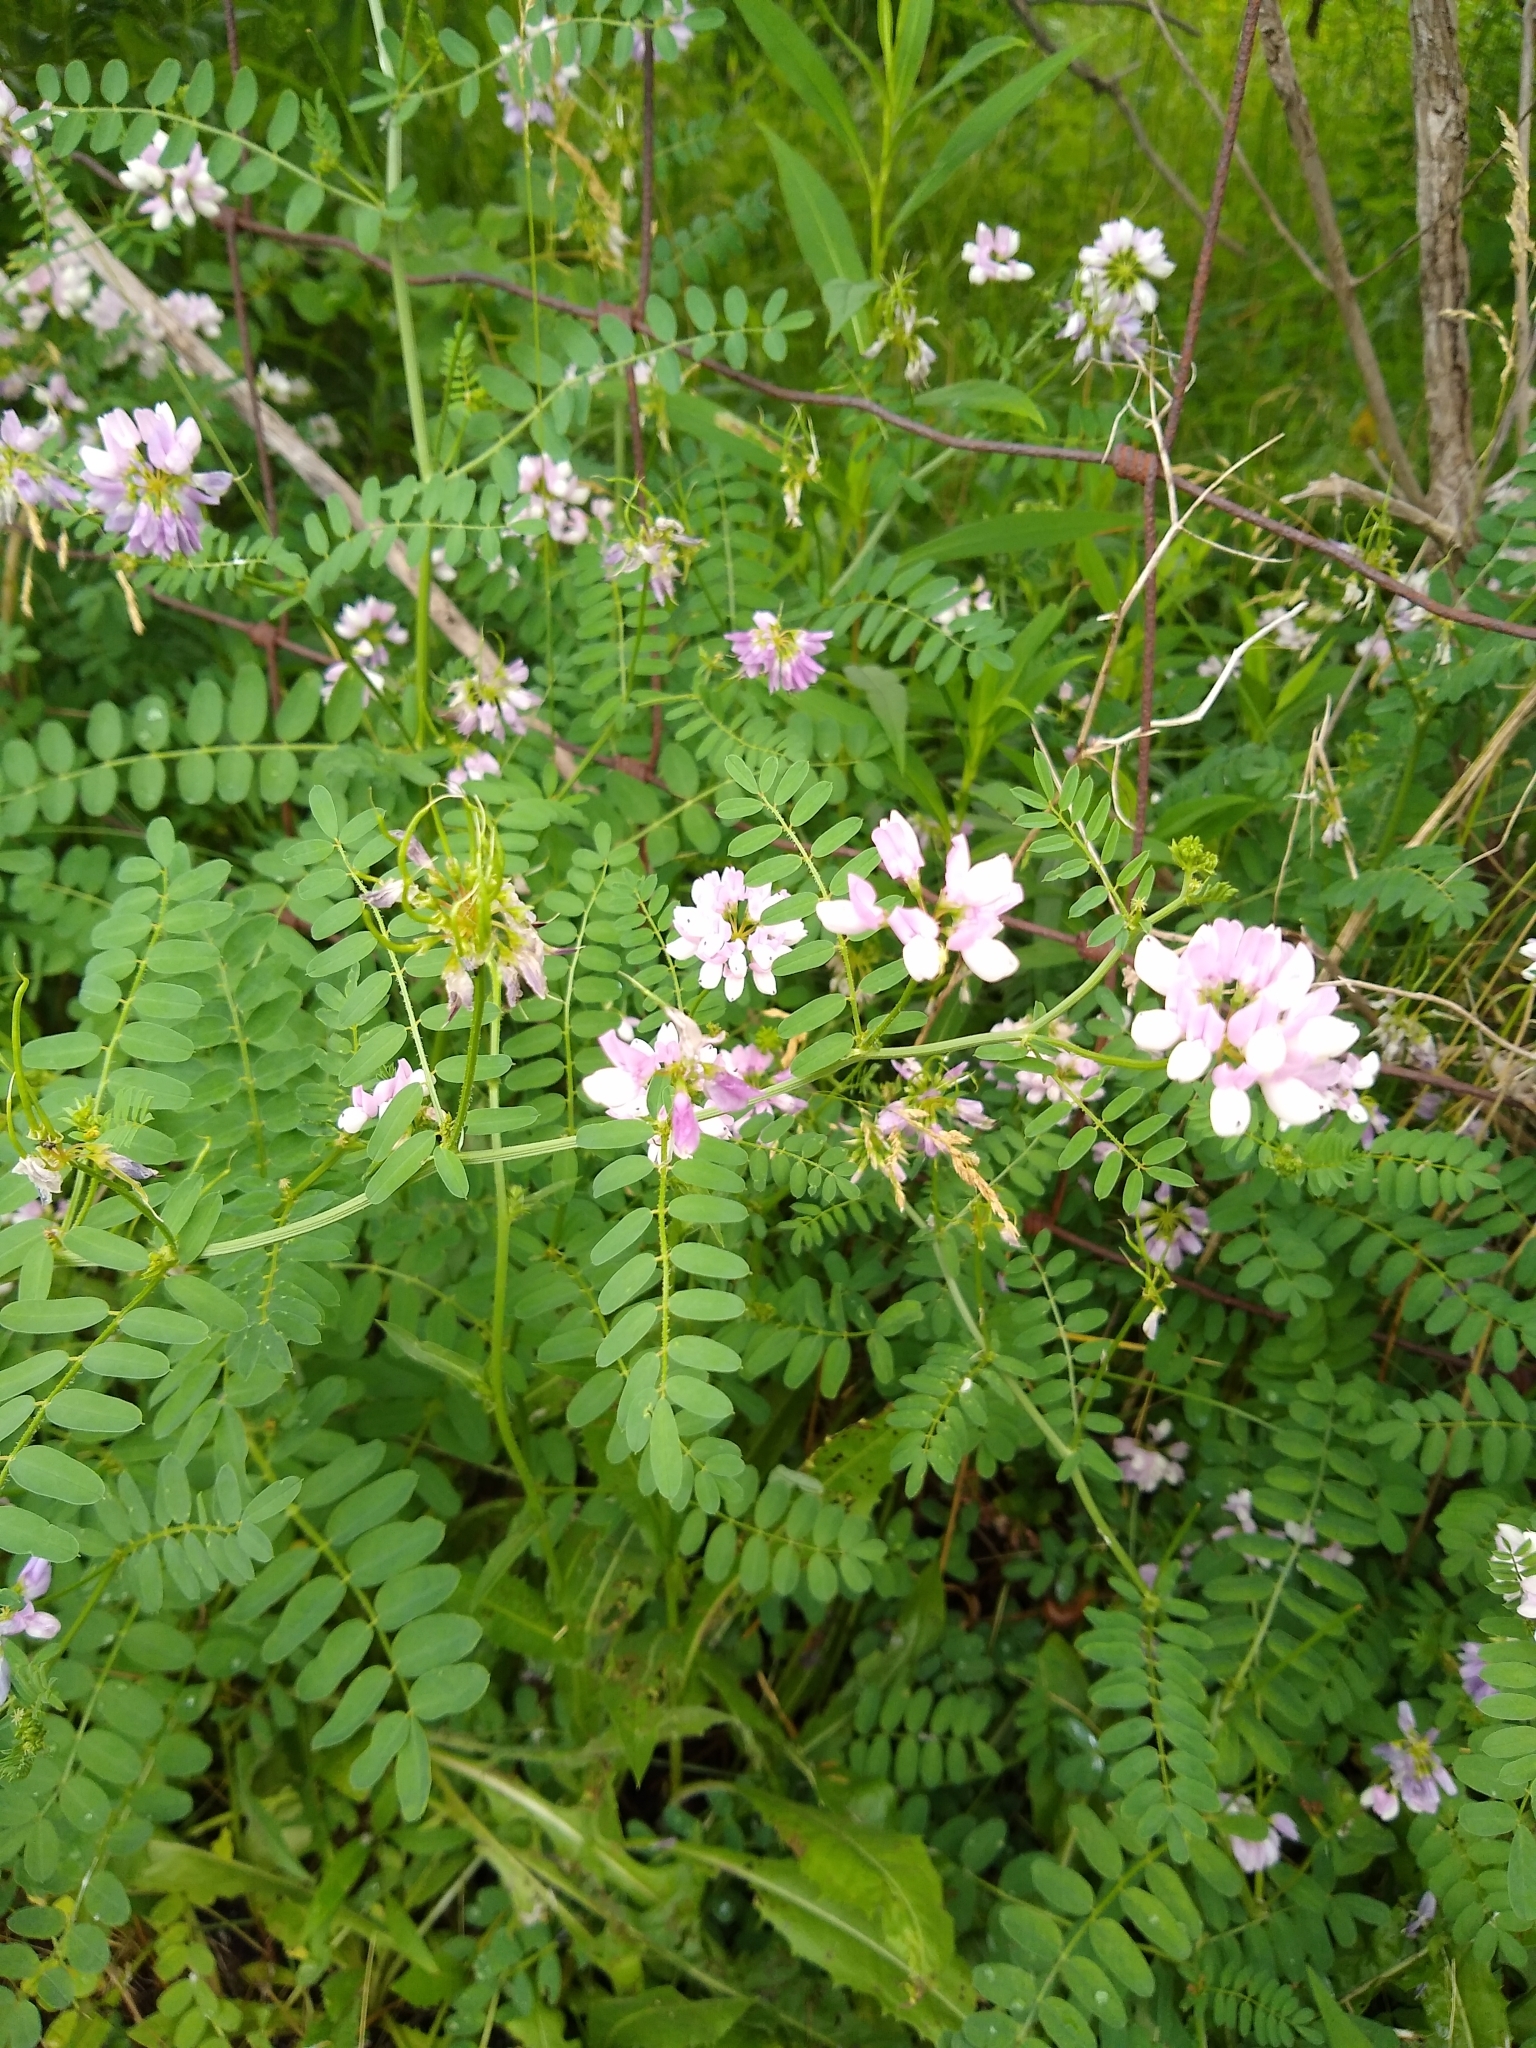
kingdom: Plantae
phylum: Tracheophyta
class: Magnoliopsida
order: Fabales
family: Fabaceae
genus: Coronilla
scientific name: Coronilla varia
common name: Crownvetch
